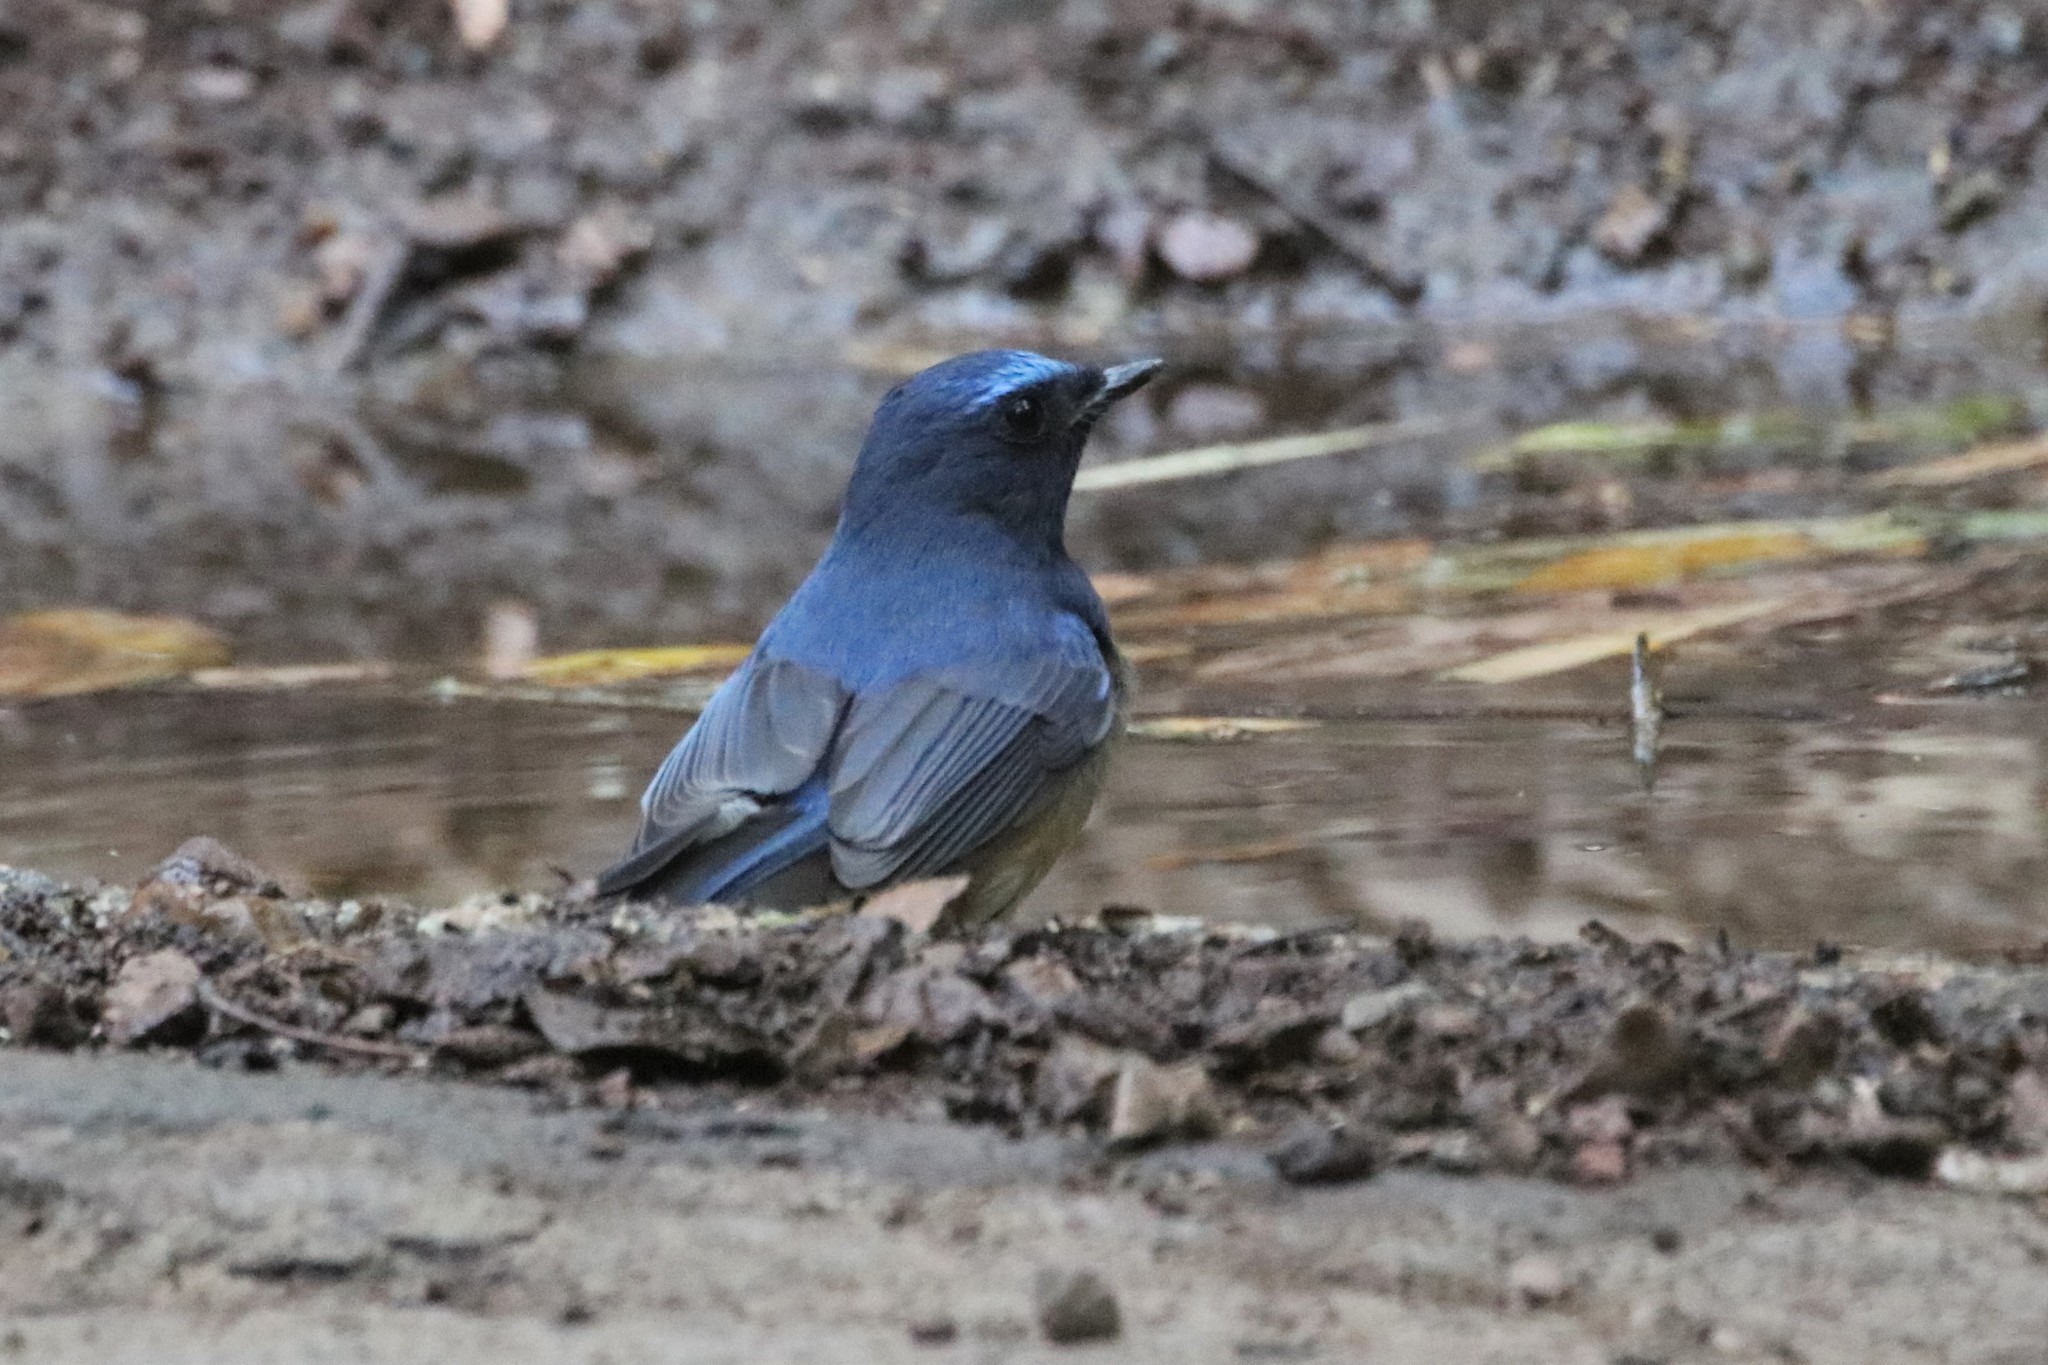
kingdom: Animalia
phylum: Chordata
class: Aves
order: Passeriformes
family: Muscicapidae
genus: Cyornis
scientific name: Cyornis hainanus
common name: Hainan blue flycatcher
